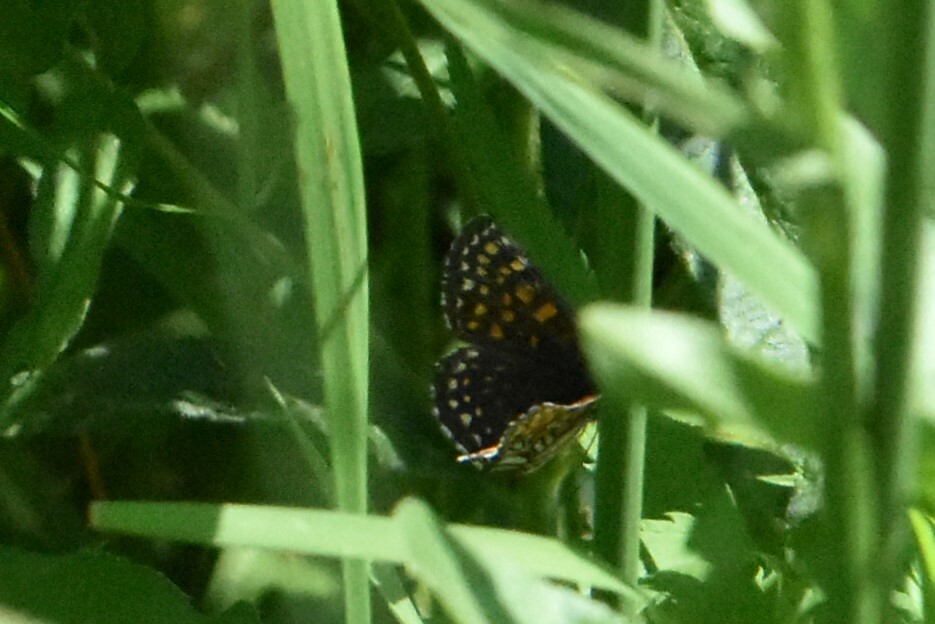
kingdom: Animalia
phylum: Arthropoda
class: Insecta
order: Lepidoptera
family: Nymphalidae
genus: Melitaea
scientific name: Melitaea diamina
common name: False heath fritillary
